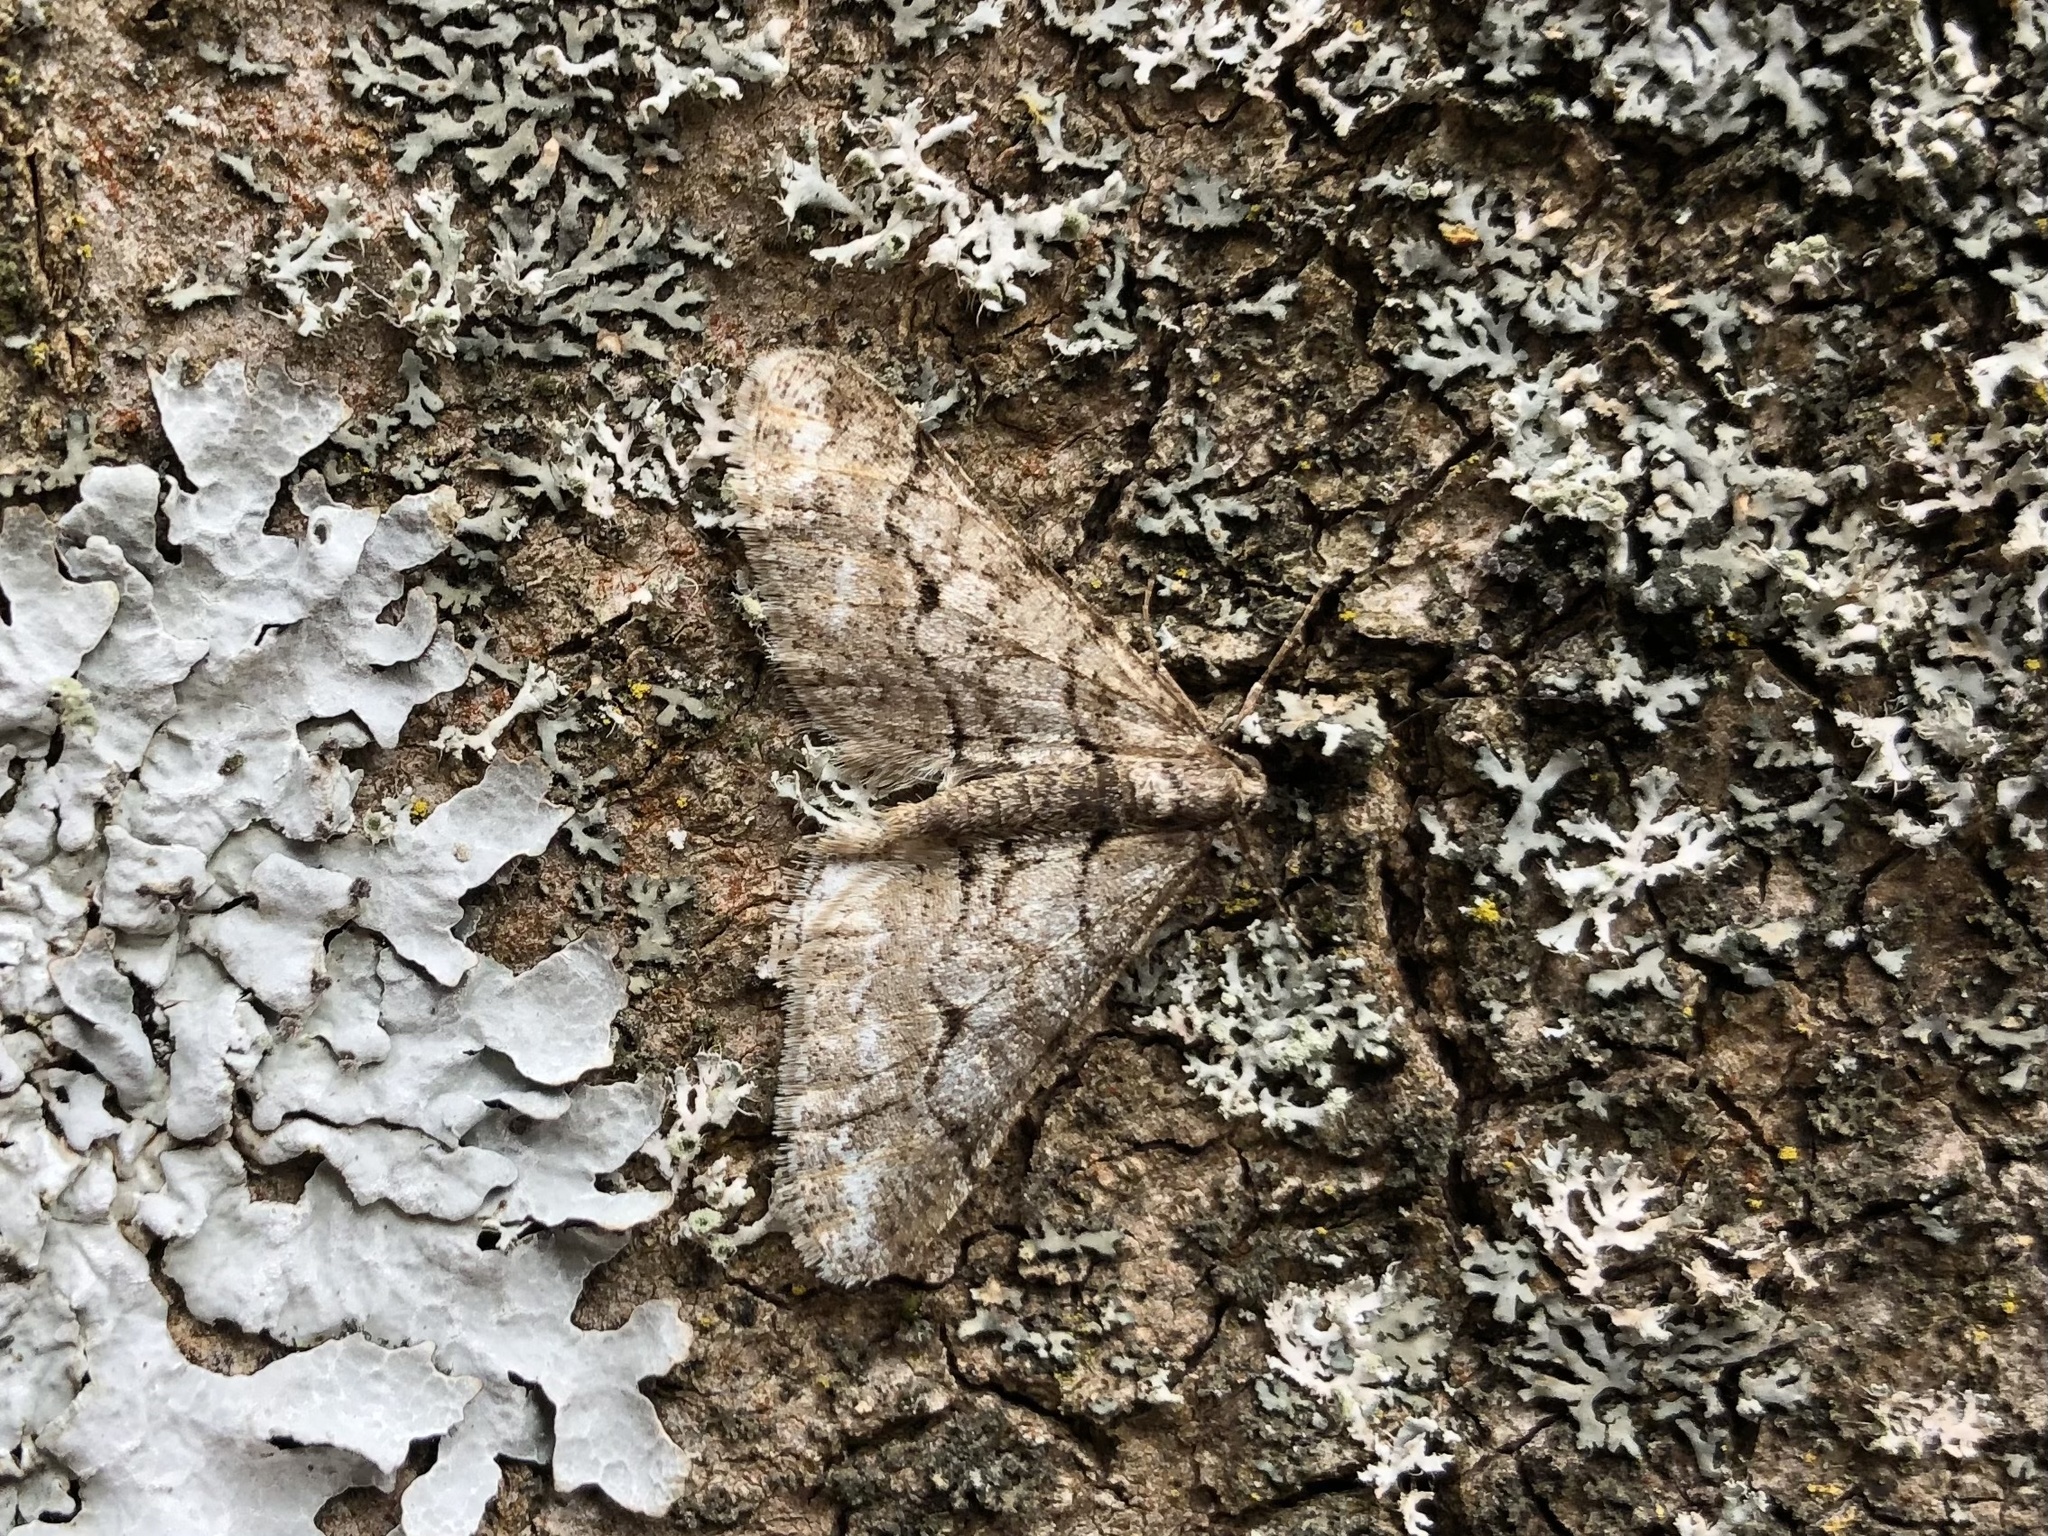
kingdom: Animalia
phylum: Arthropoda
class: Insecta
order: Lepidoptera
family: Geometridae
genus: Agriopis
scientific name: Agriopis leucophaearia
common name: Spring usher
